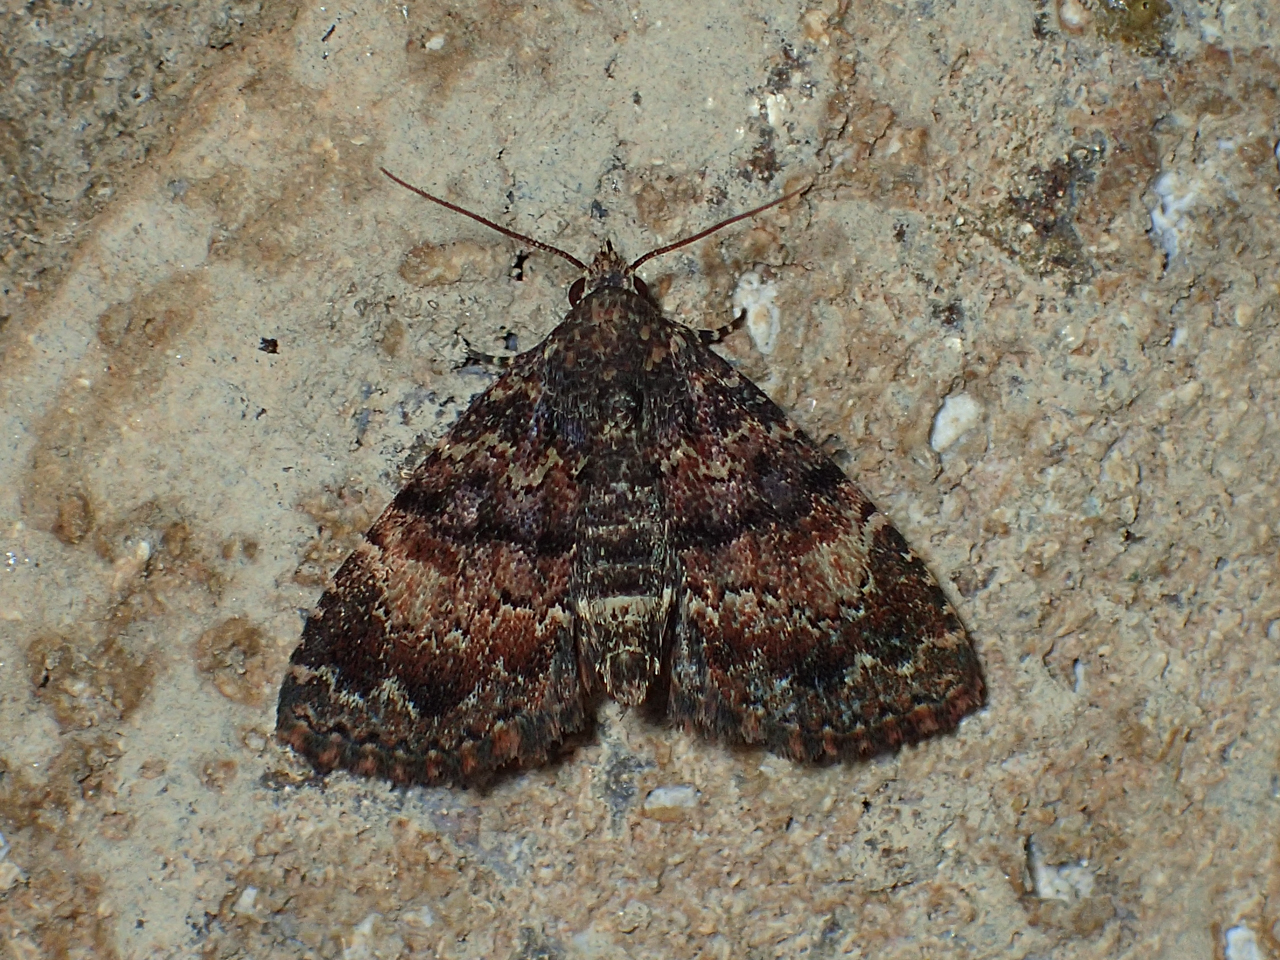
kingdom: Animalia
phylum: Arthropoda
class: Insecta
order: Lepidoptera
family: Erebidae
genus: Metalectra
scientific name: Metalectra richardsi
